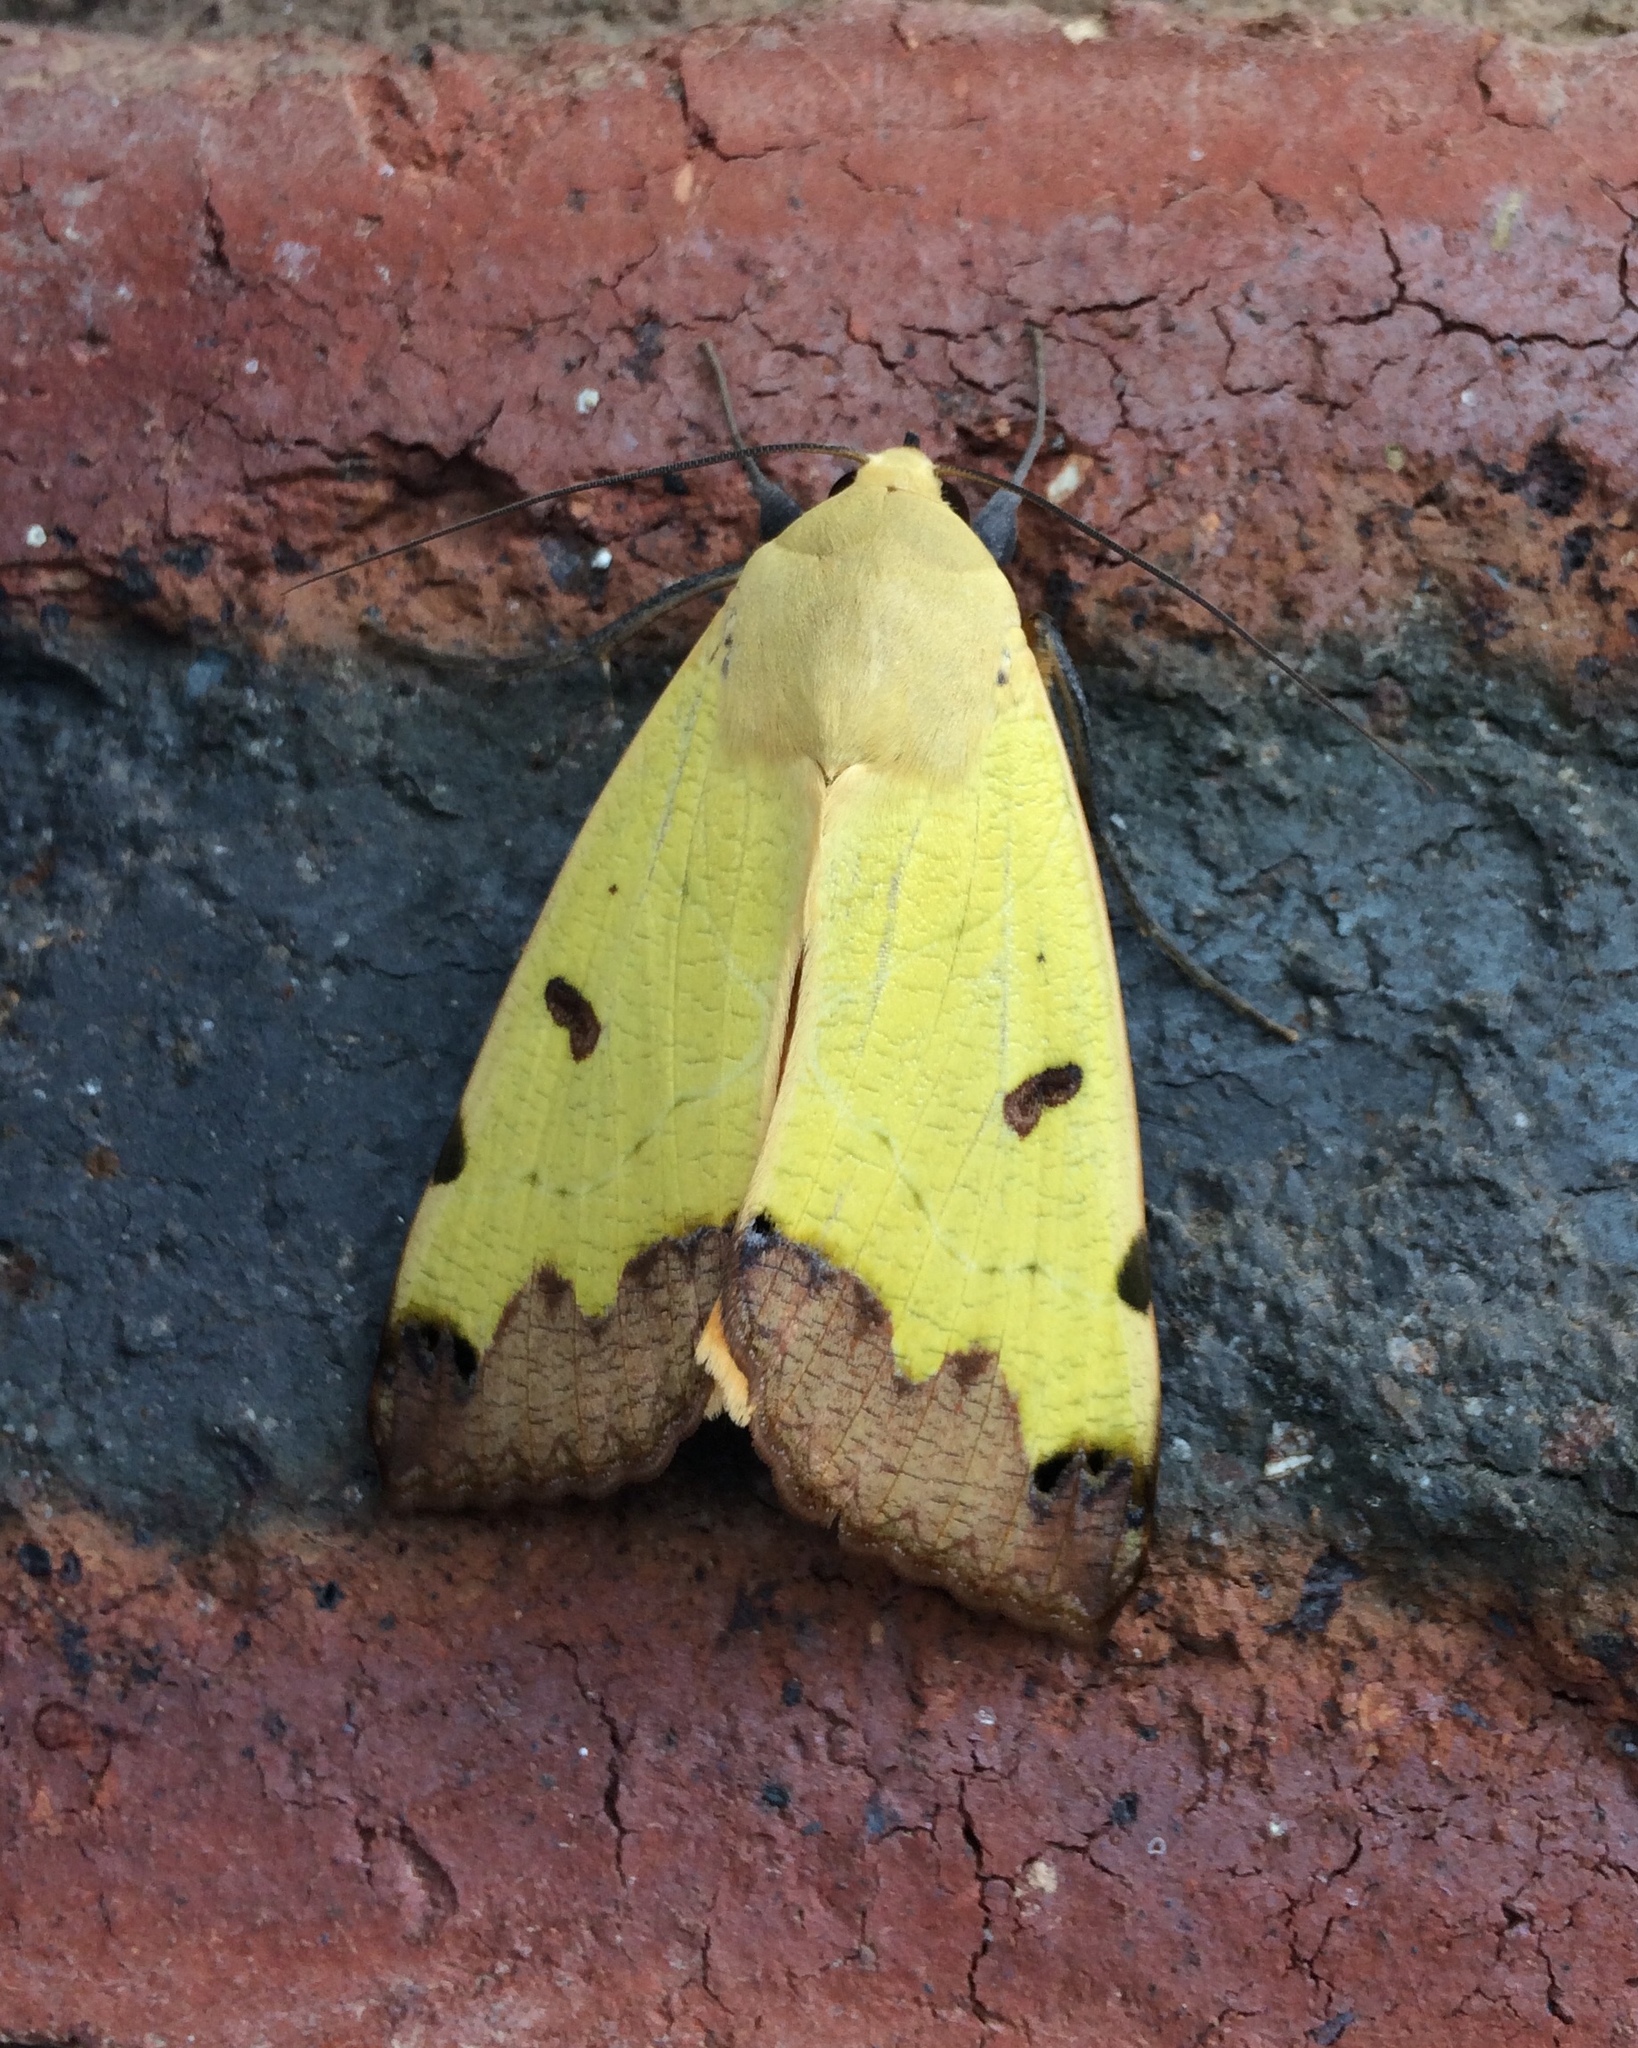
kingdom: Animalia
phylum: Arthropoda
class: Insecta
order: Lepidoptera
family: Erebidae
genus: Ophiusa
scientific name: Ophiusa tirhaca
